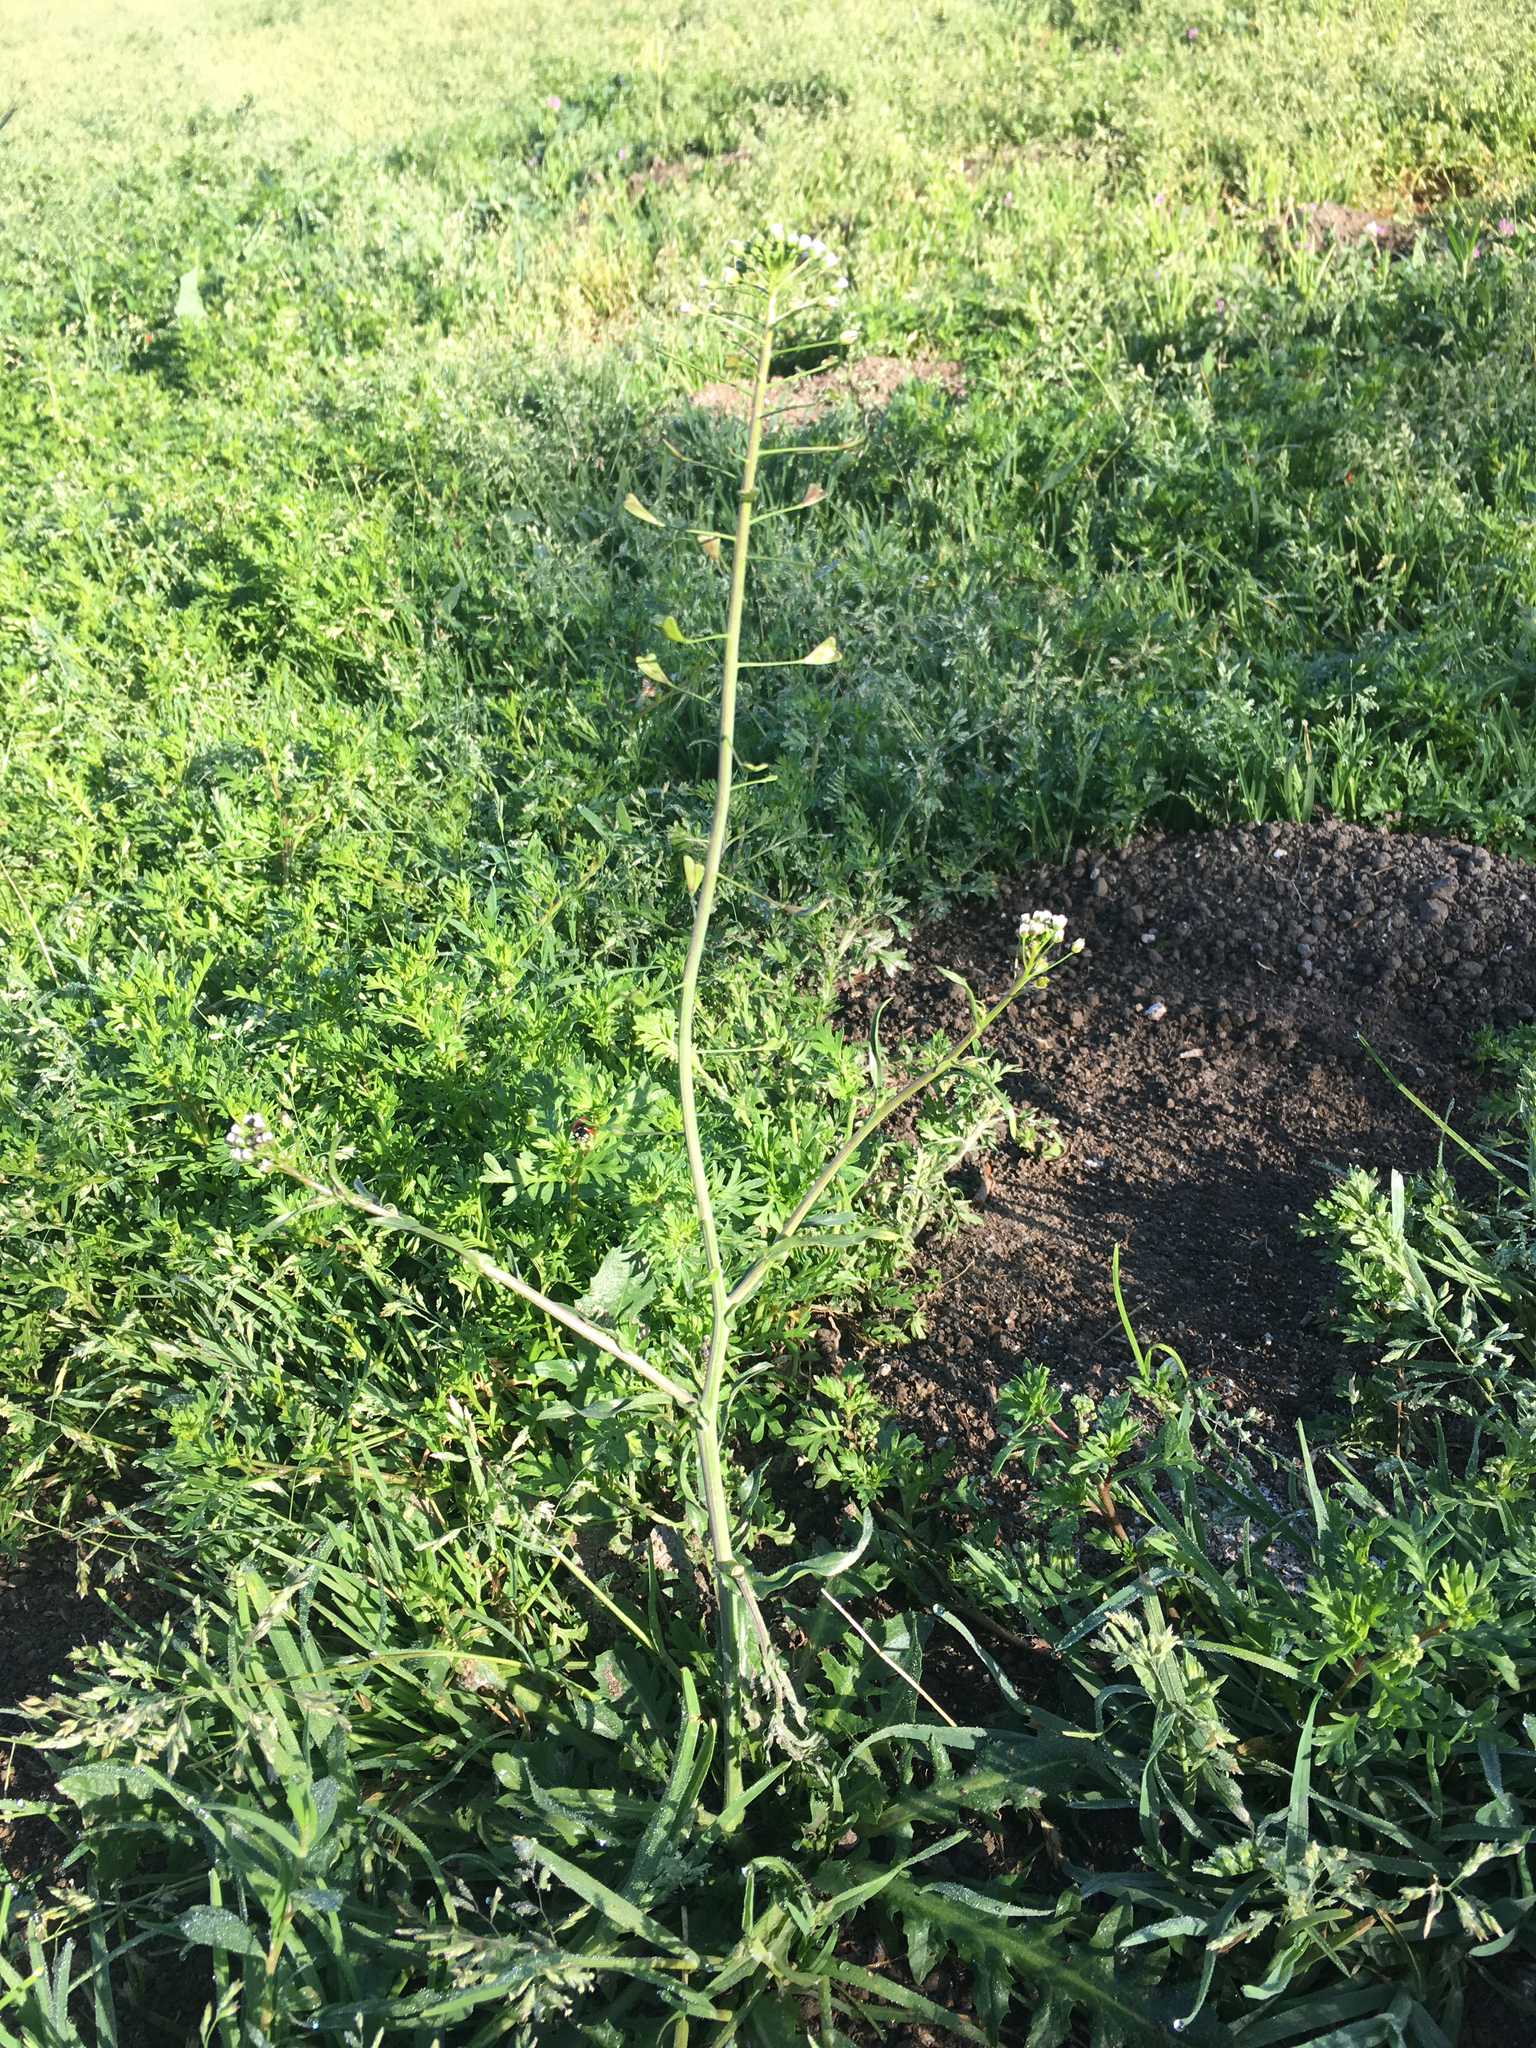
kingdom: Plantae
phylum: Tracheophyta
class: Magnoliopsida
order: Brassicales
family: Brassicaceae
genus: Capsella
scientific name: Capsella bursa-pastoris
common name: Shepherd's purse
